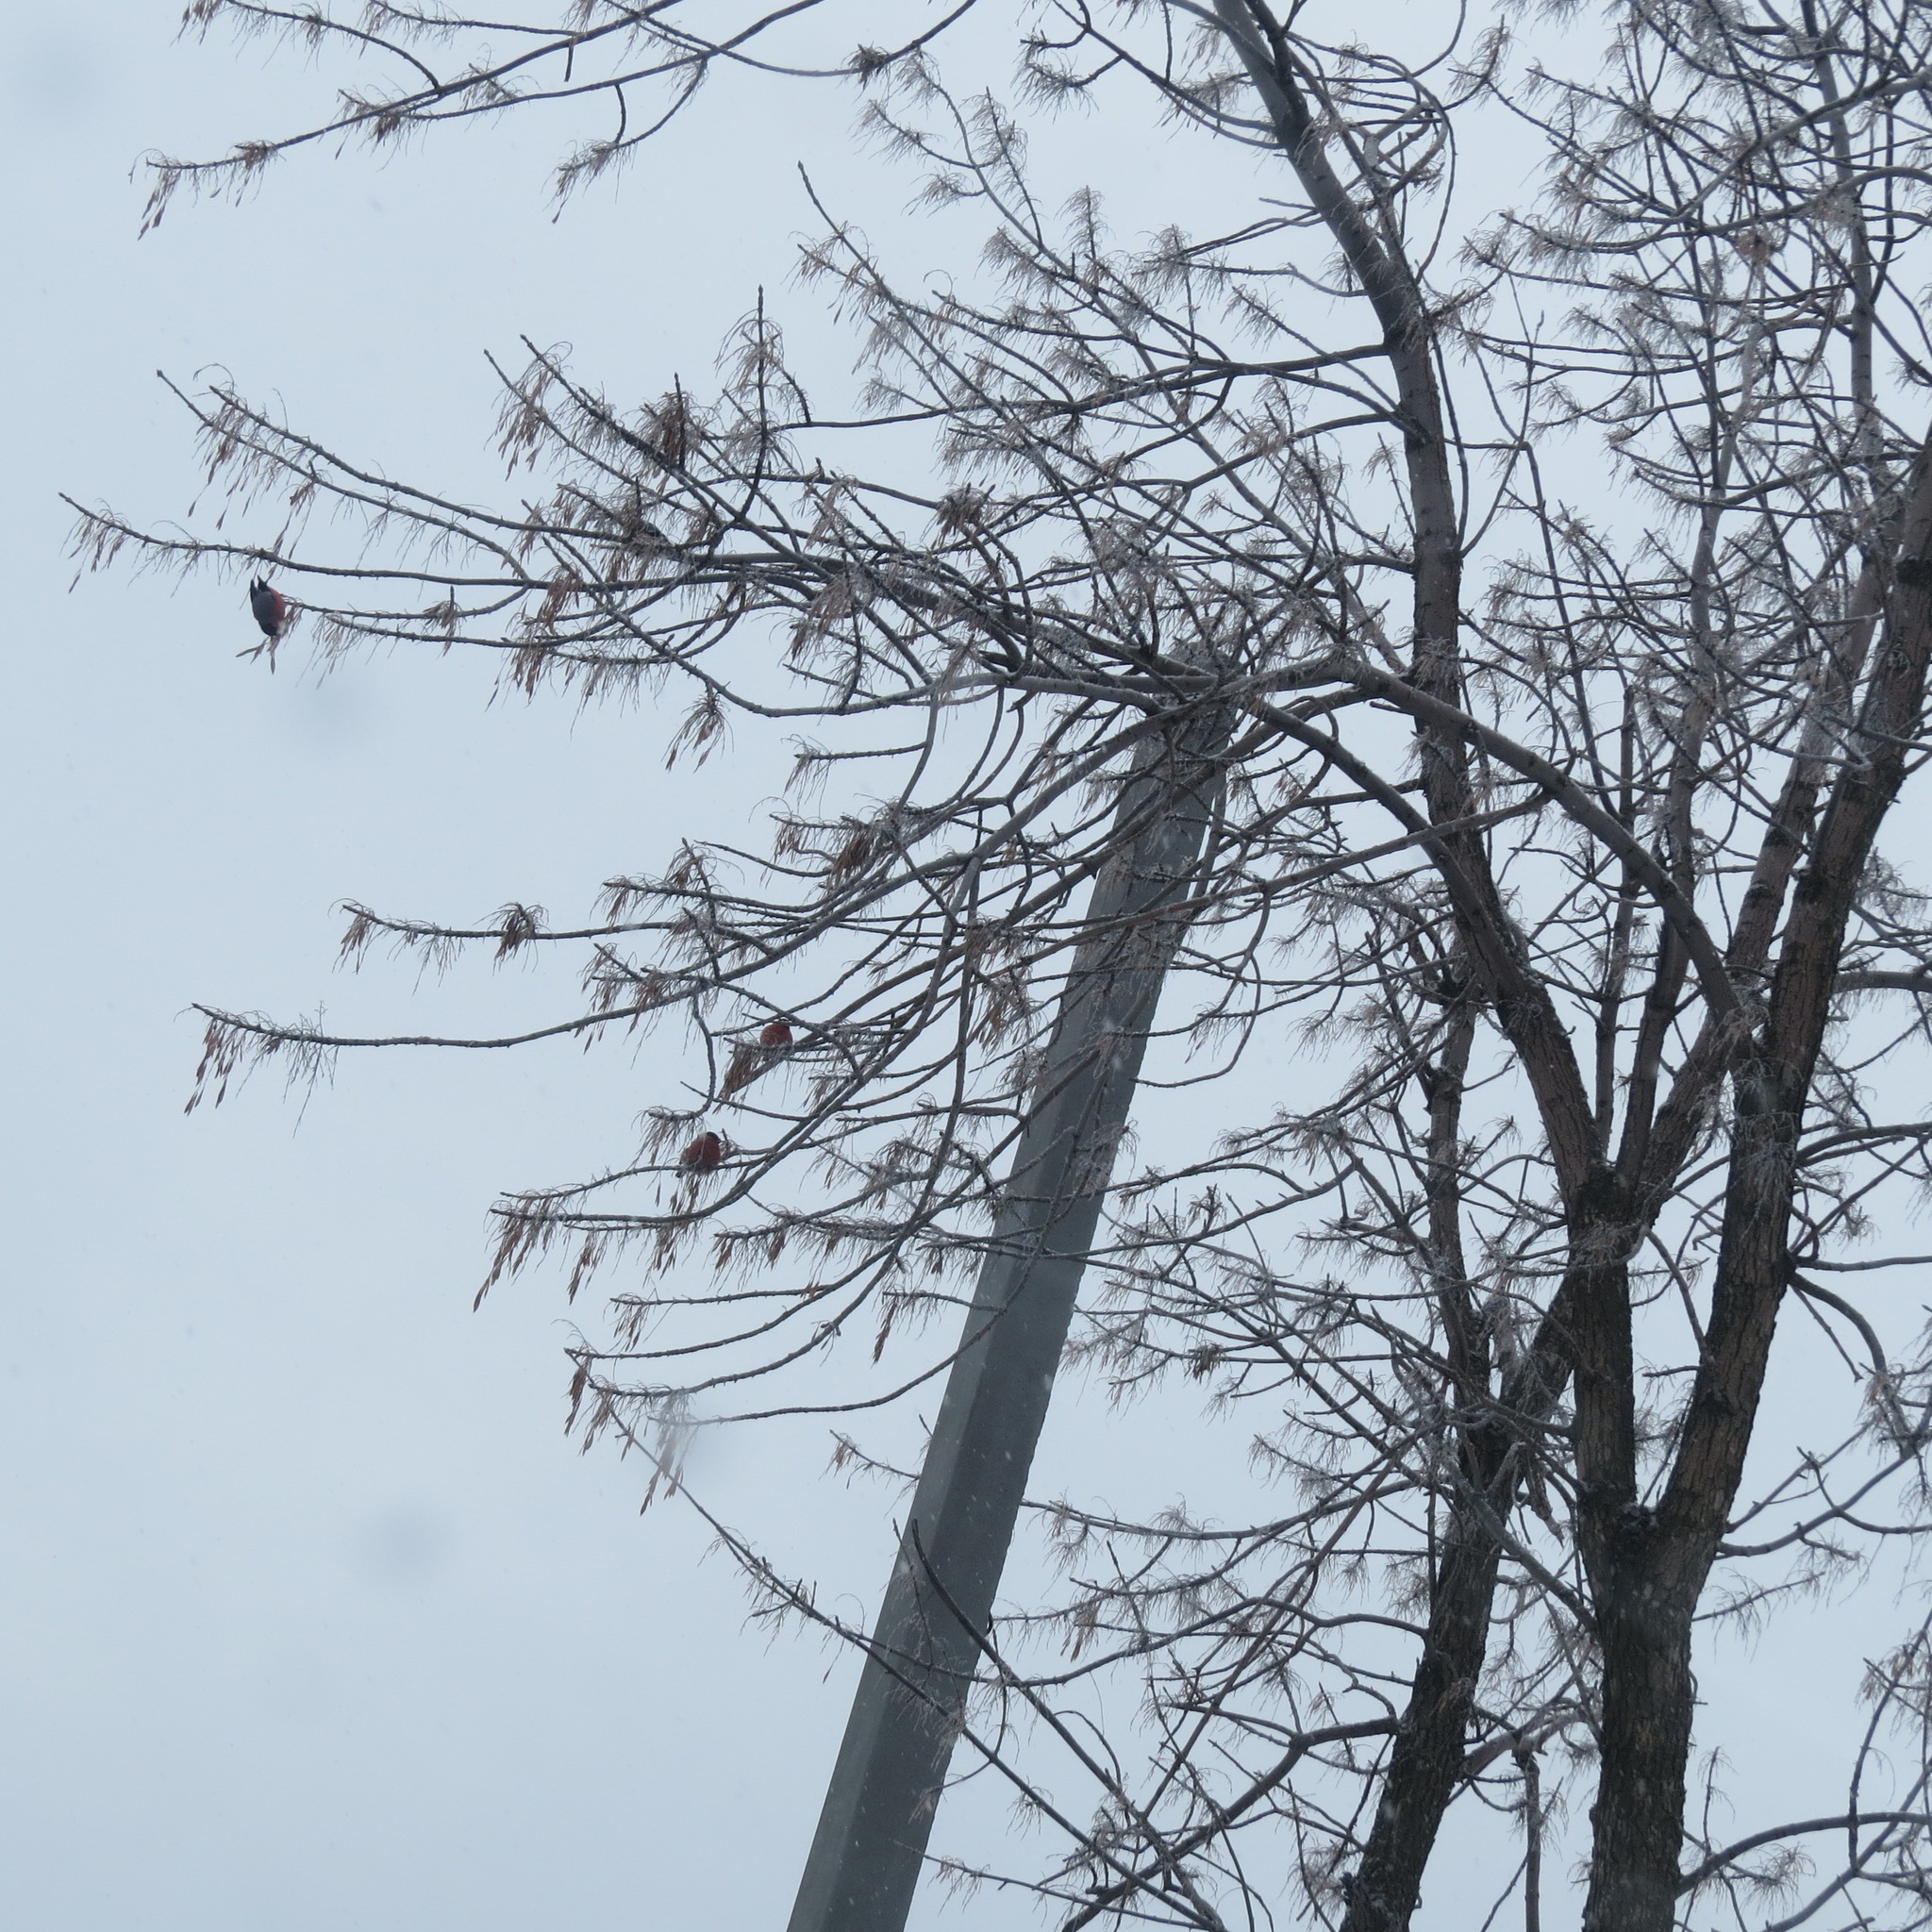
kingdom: Animalia
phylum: Chordata
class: Aves
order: Passeriformes
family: Fringillidae
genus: Pyrrhula
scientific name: Pyrrhula pyrrhula
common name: Eurasian bullfinch
